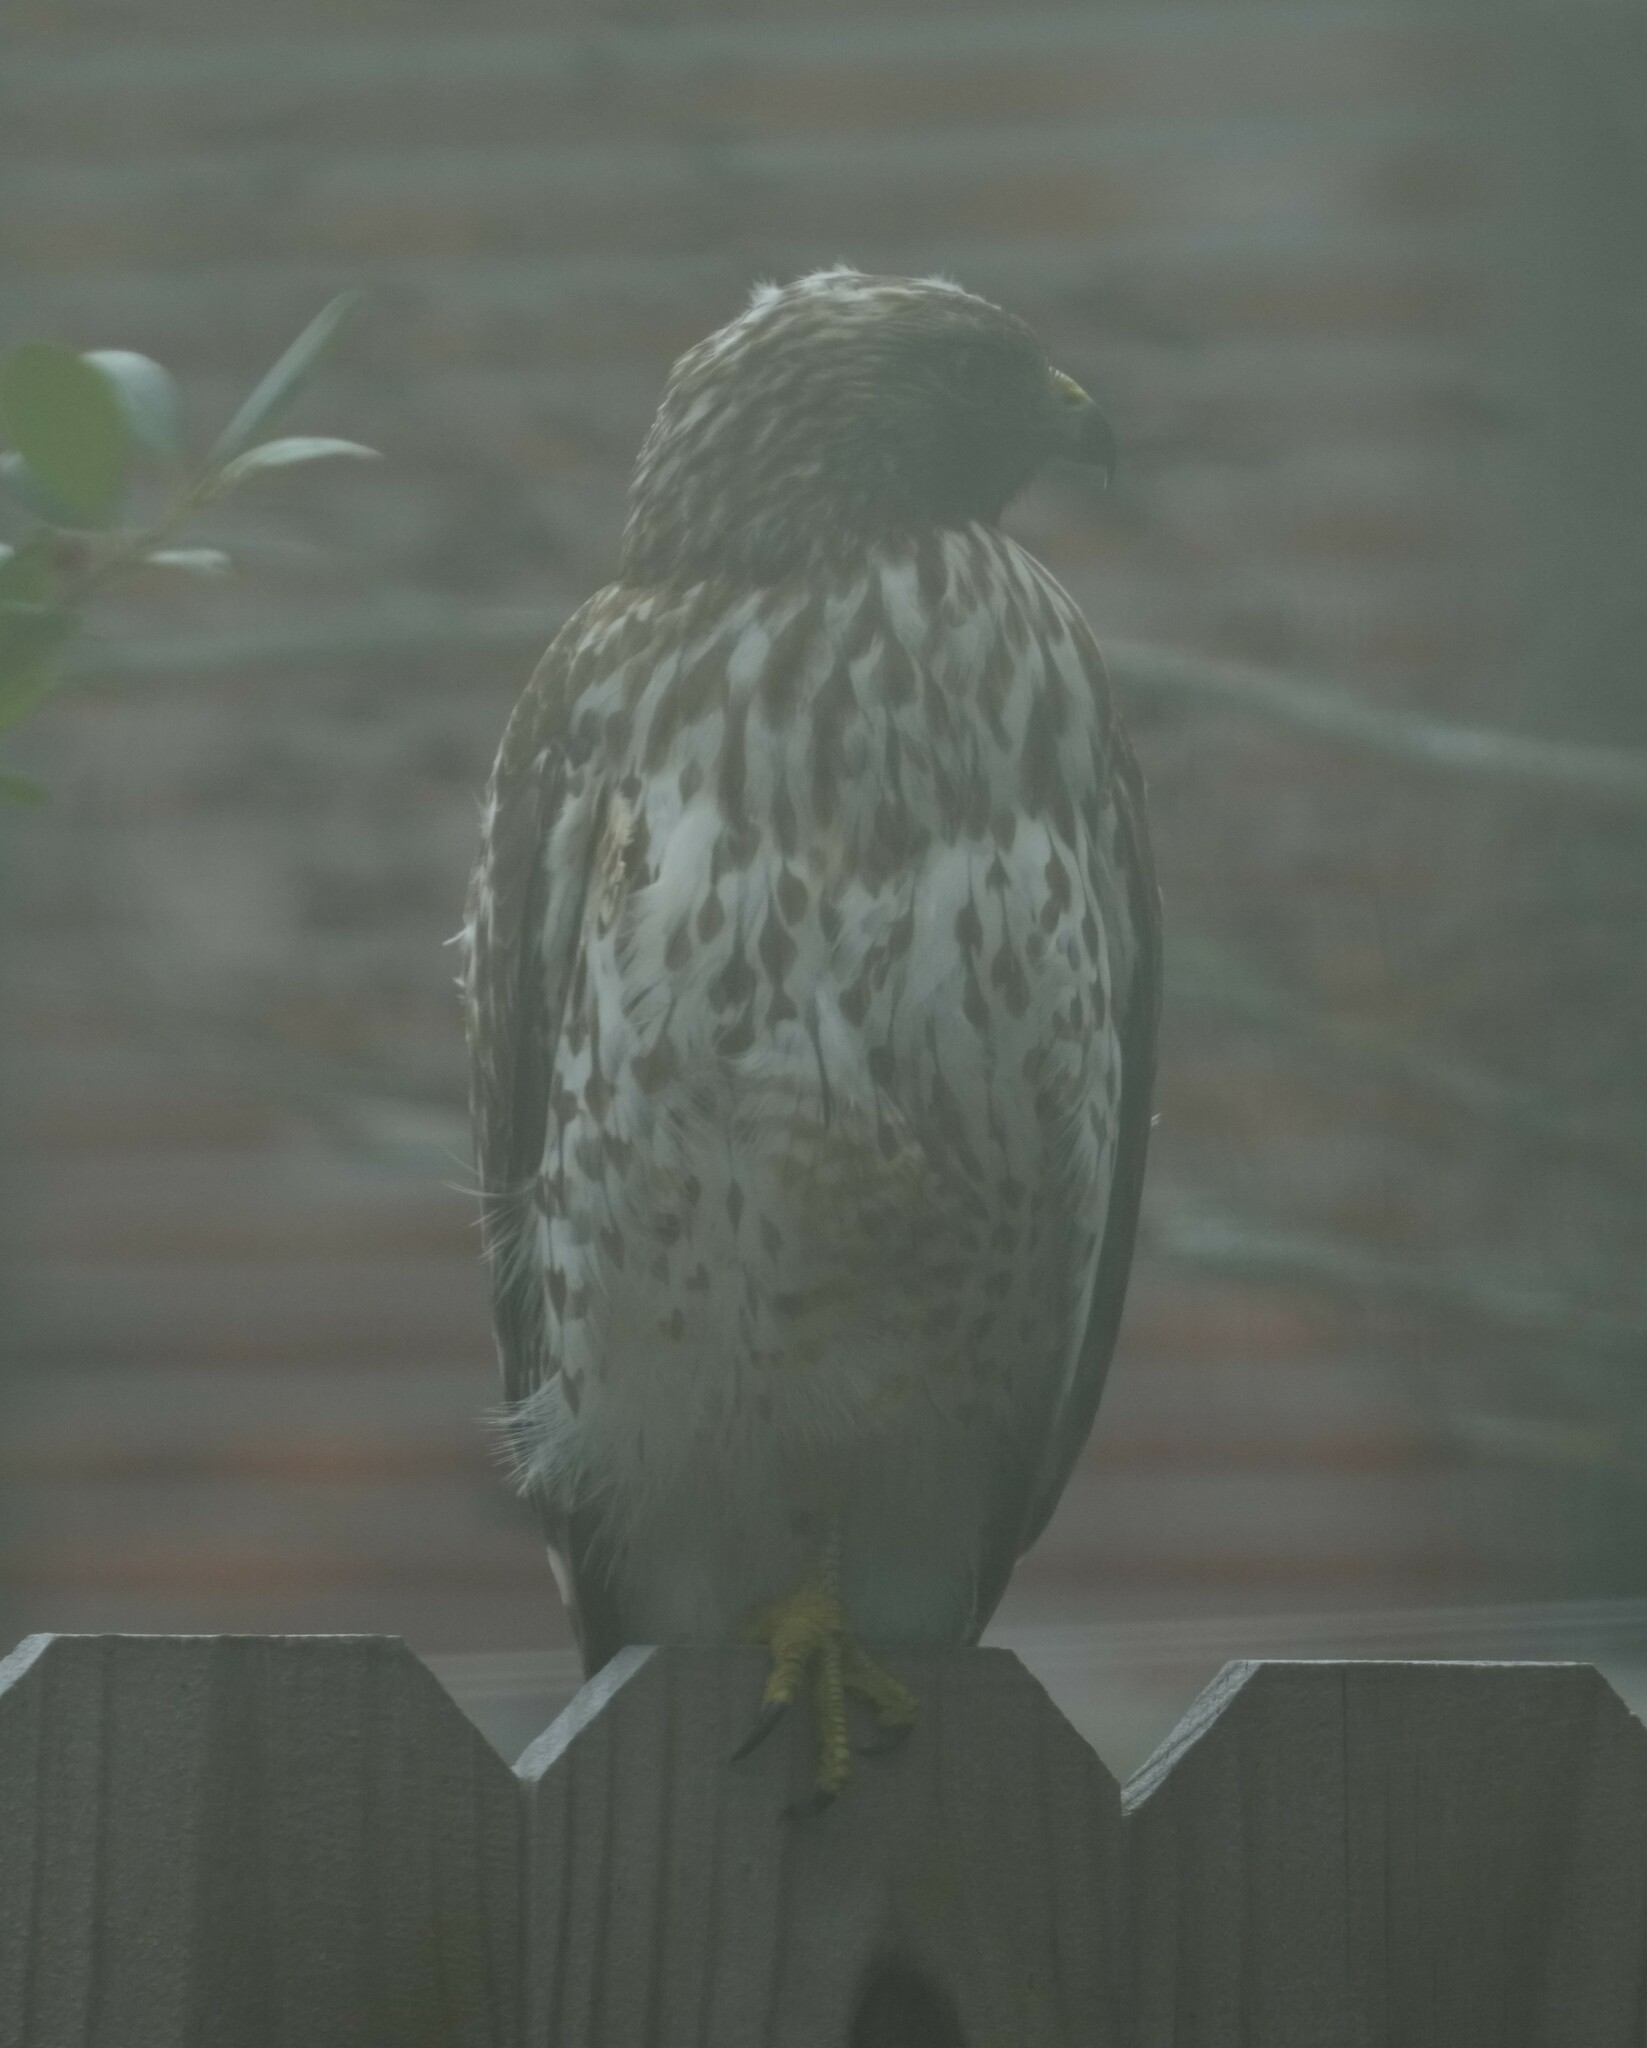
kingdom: Animalia
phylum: Chordata
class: Aves
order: Accipitriformes
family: Accipitridae
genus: Buteo
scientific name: Buteo lineatus
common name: Red-shouldered hawk
